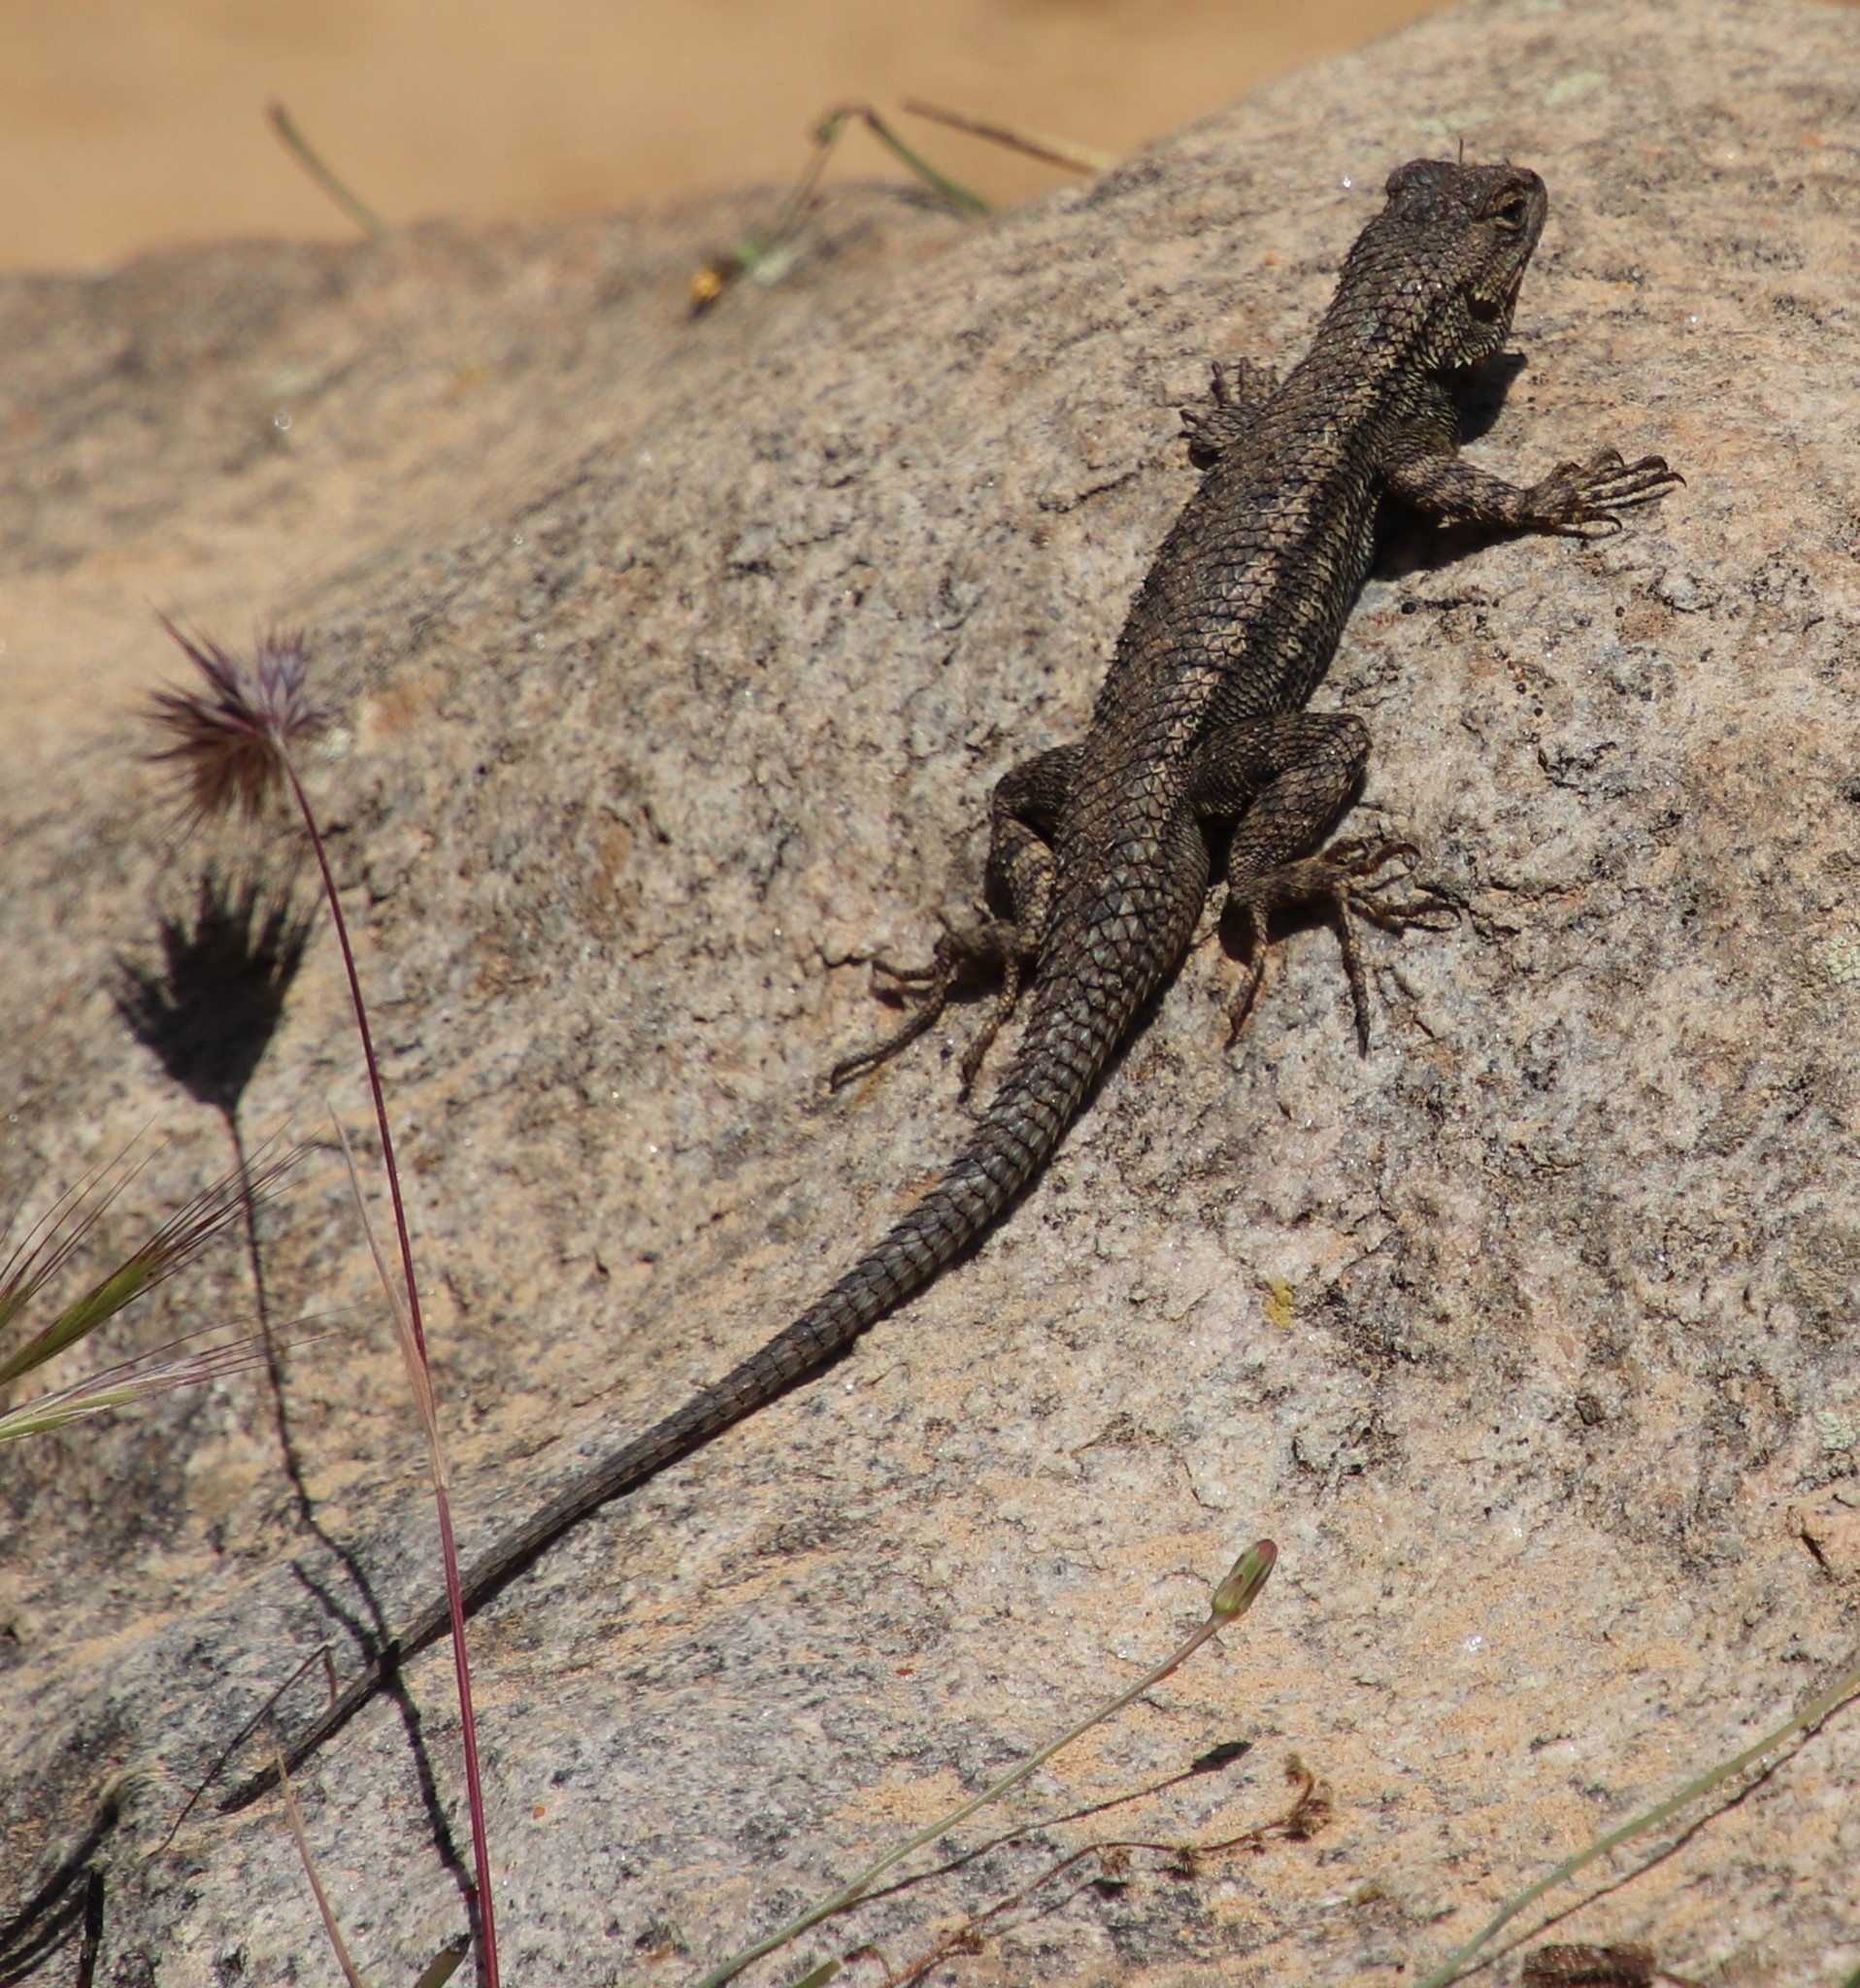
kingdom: Animalia
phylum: Chordata
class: Squamata
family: Phrynosomatidae
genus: Sceloporus
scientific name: Sceloporus occidentalis
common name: Western fence lizard
